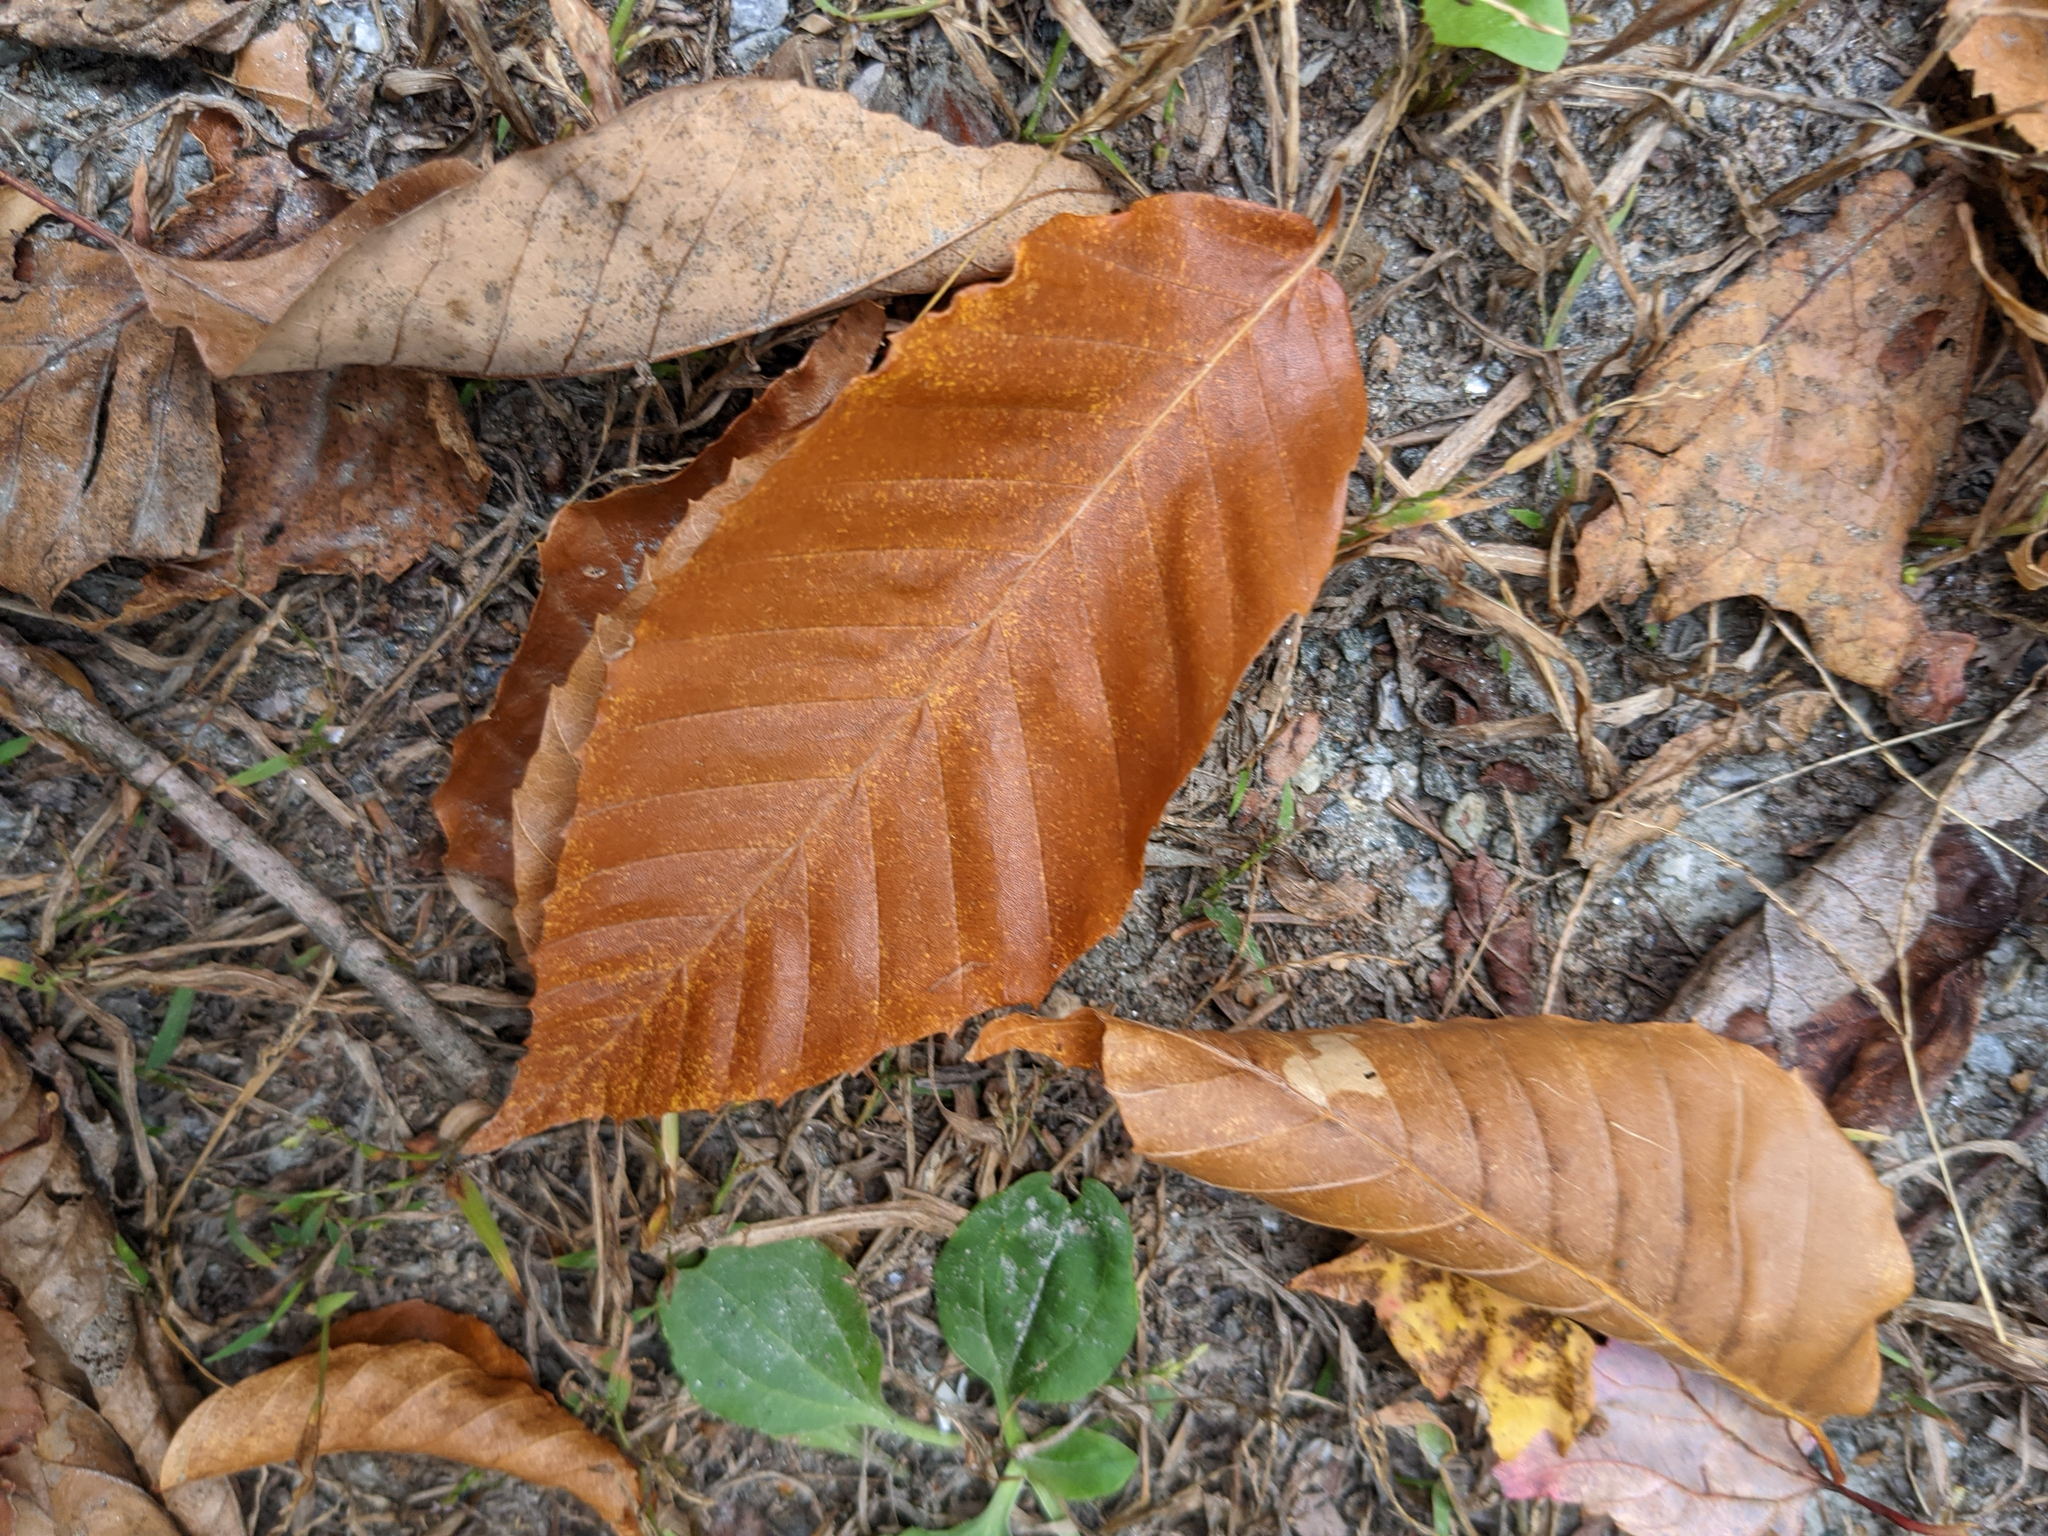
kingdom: Plantae
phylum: Tracheophyta
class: Magnoliopsida
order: Fagales
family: Fagaceae
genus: Fagus
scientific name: Fagus grandifolia
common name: American beech
